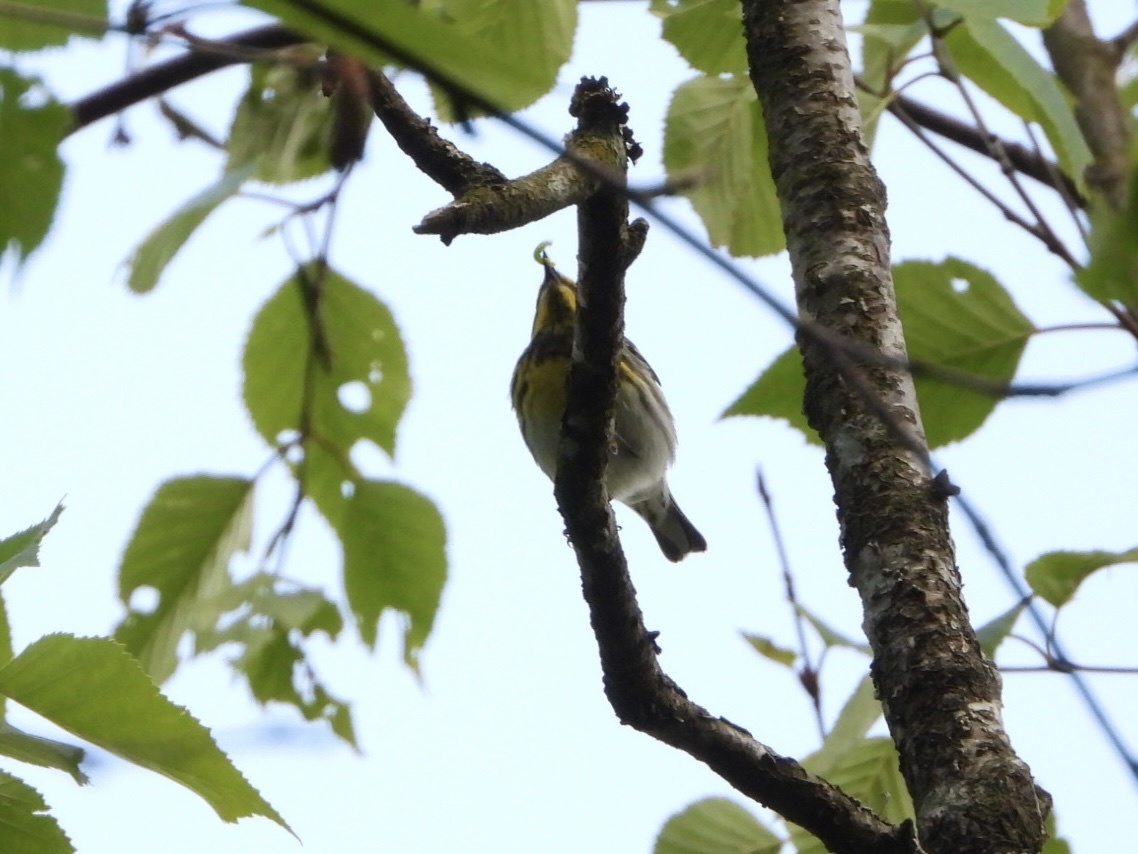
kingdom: Animalia
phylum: Chordata
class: Aves
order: Passeriformes
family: Parulidae
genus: Setophaga
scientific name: Setophaga townsendi
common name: Townsend's warbler
